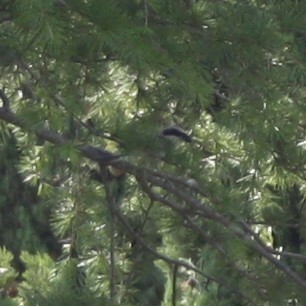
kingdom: Animalia
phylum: Chordata
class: Aves
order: Passeriformes
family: Laniidae
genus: Lanius
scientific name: Lanius collurio
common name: Red-backed shrike
